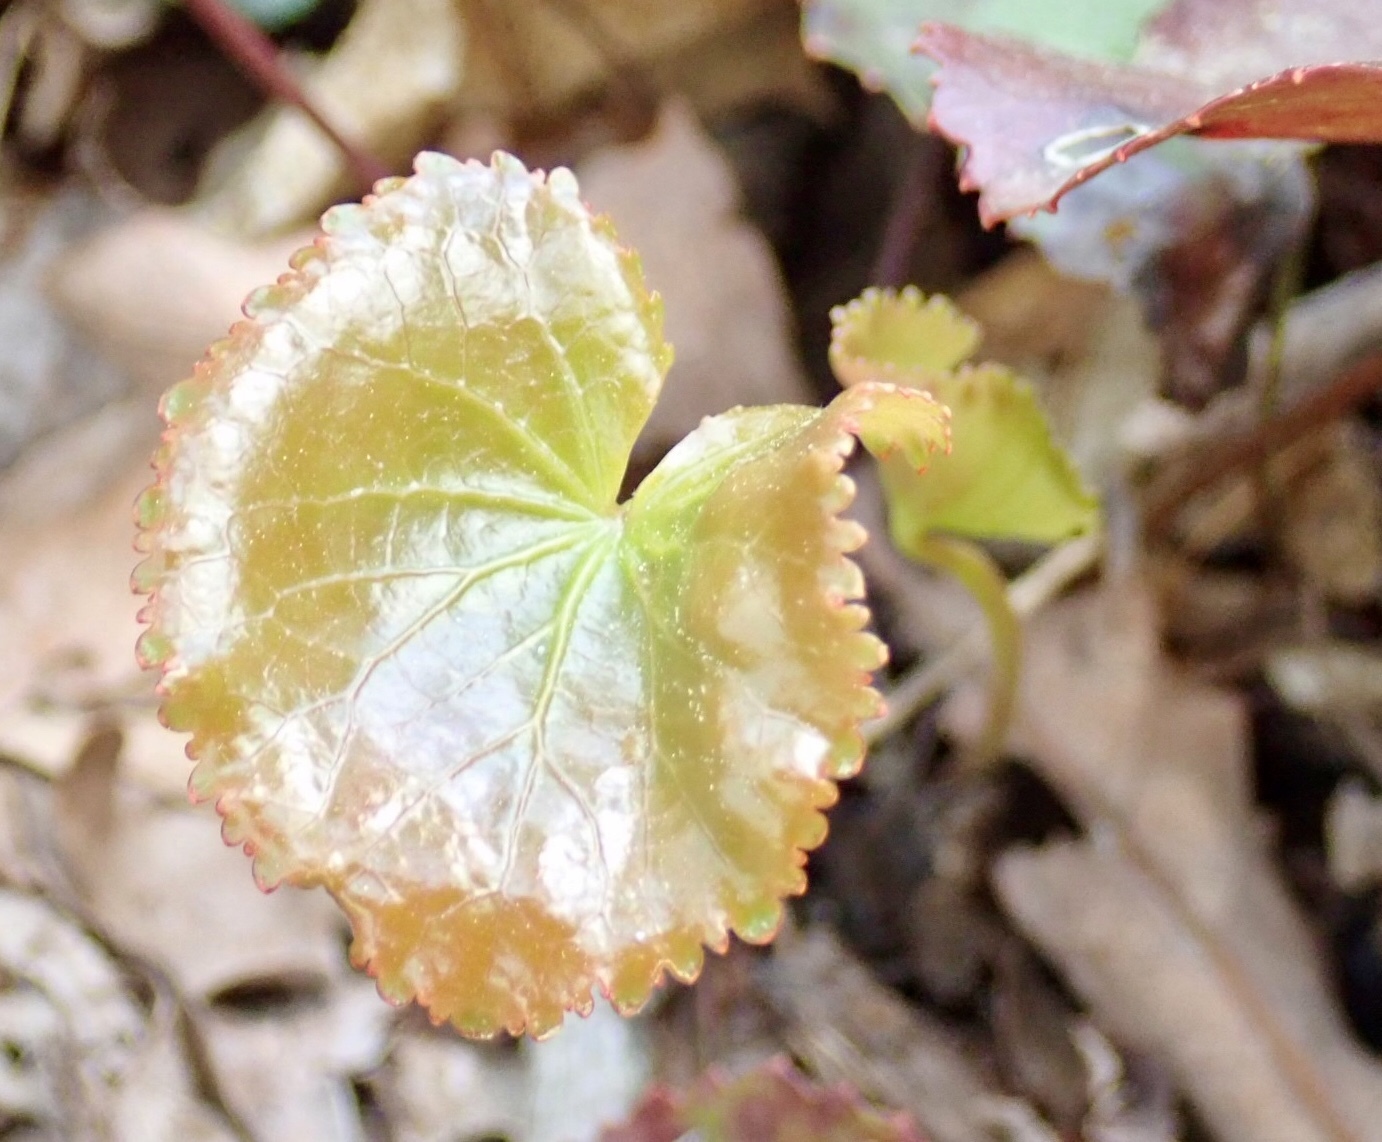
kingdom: Plantae
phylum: Tracheophyta
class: Magnoliopsida
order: Ericales
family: Diapensiaceae
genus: Galax
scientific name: Galax urceolata
